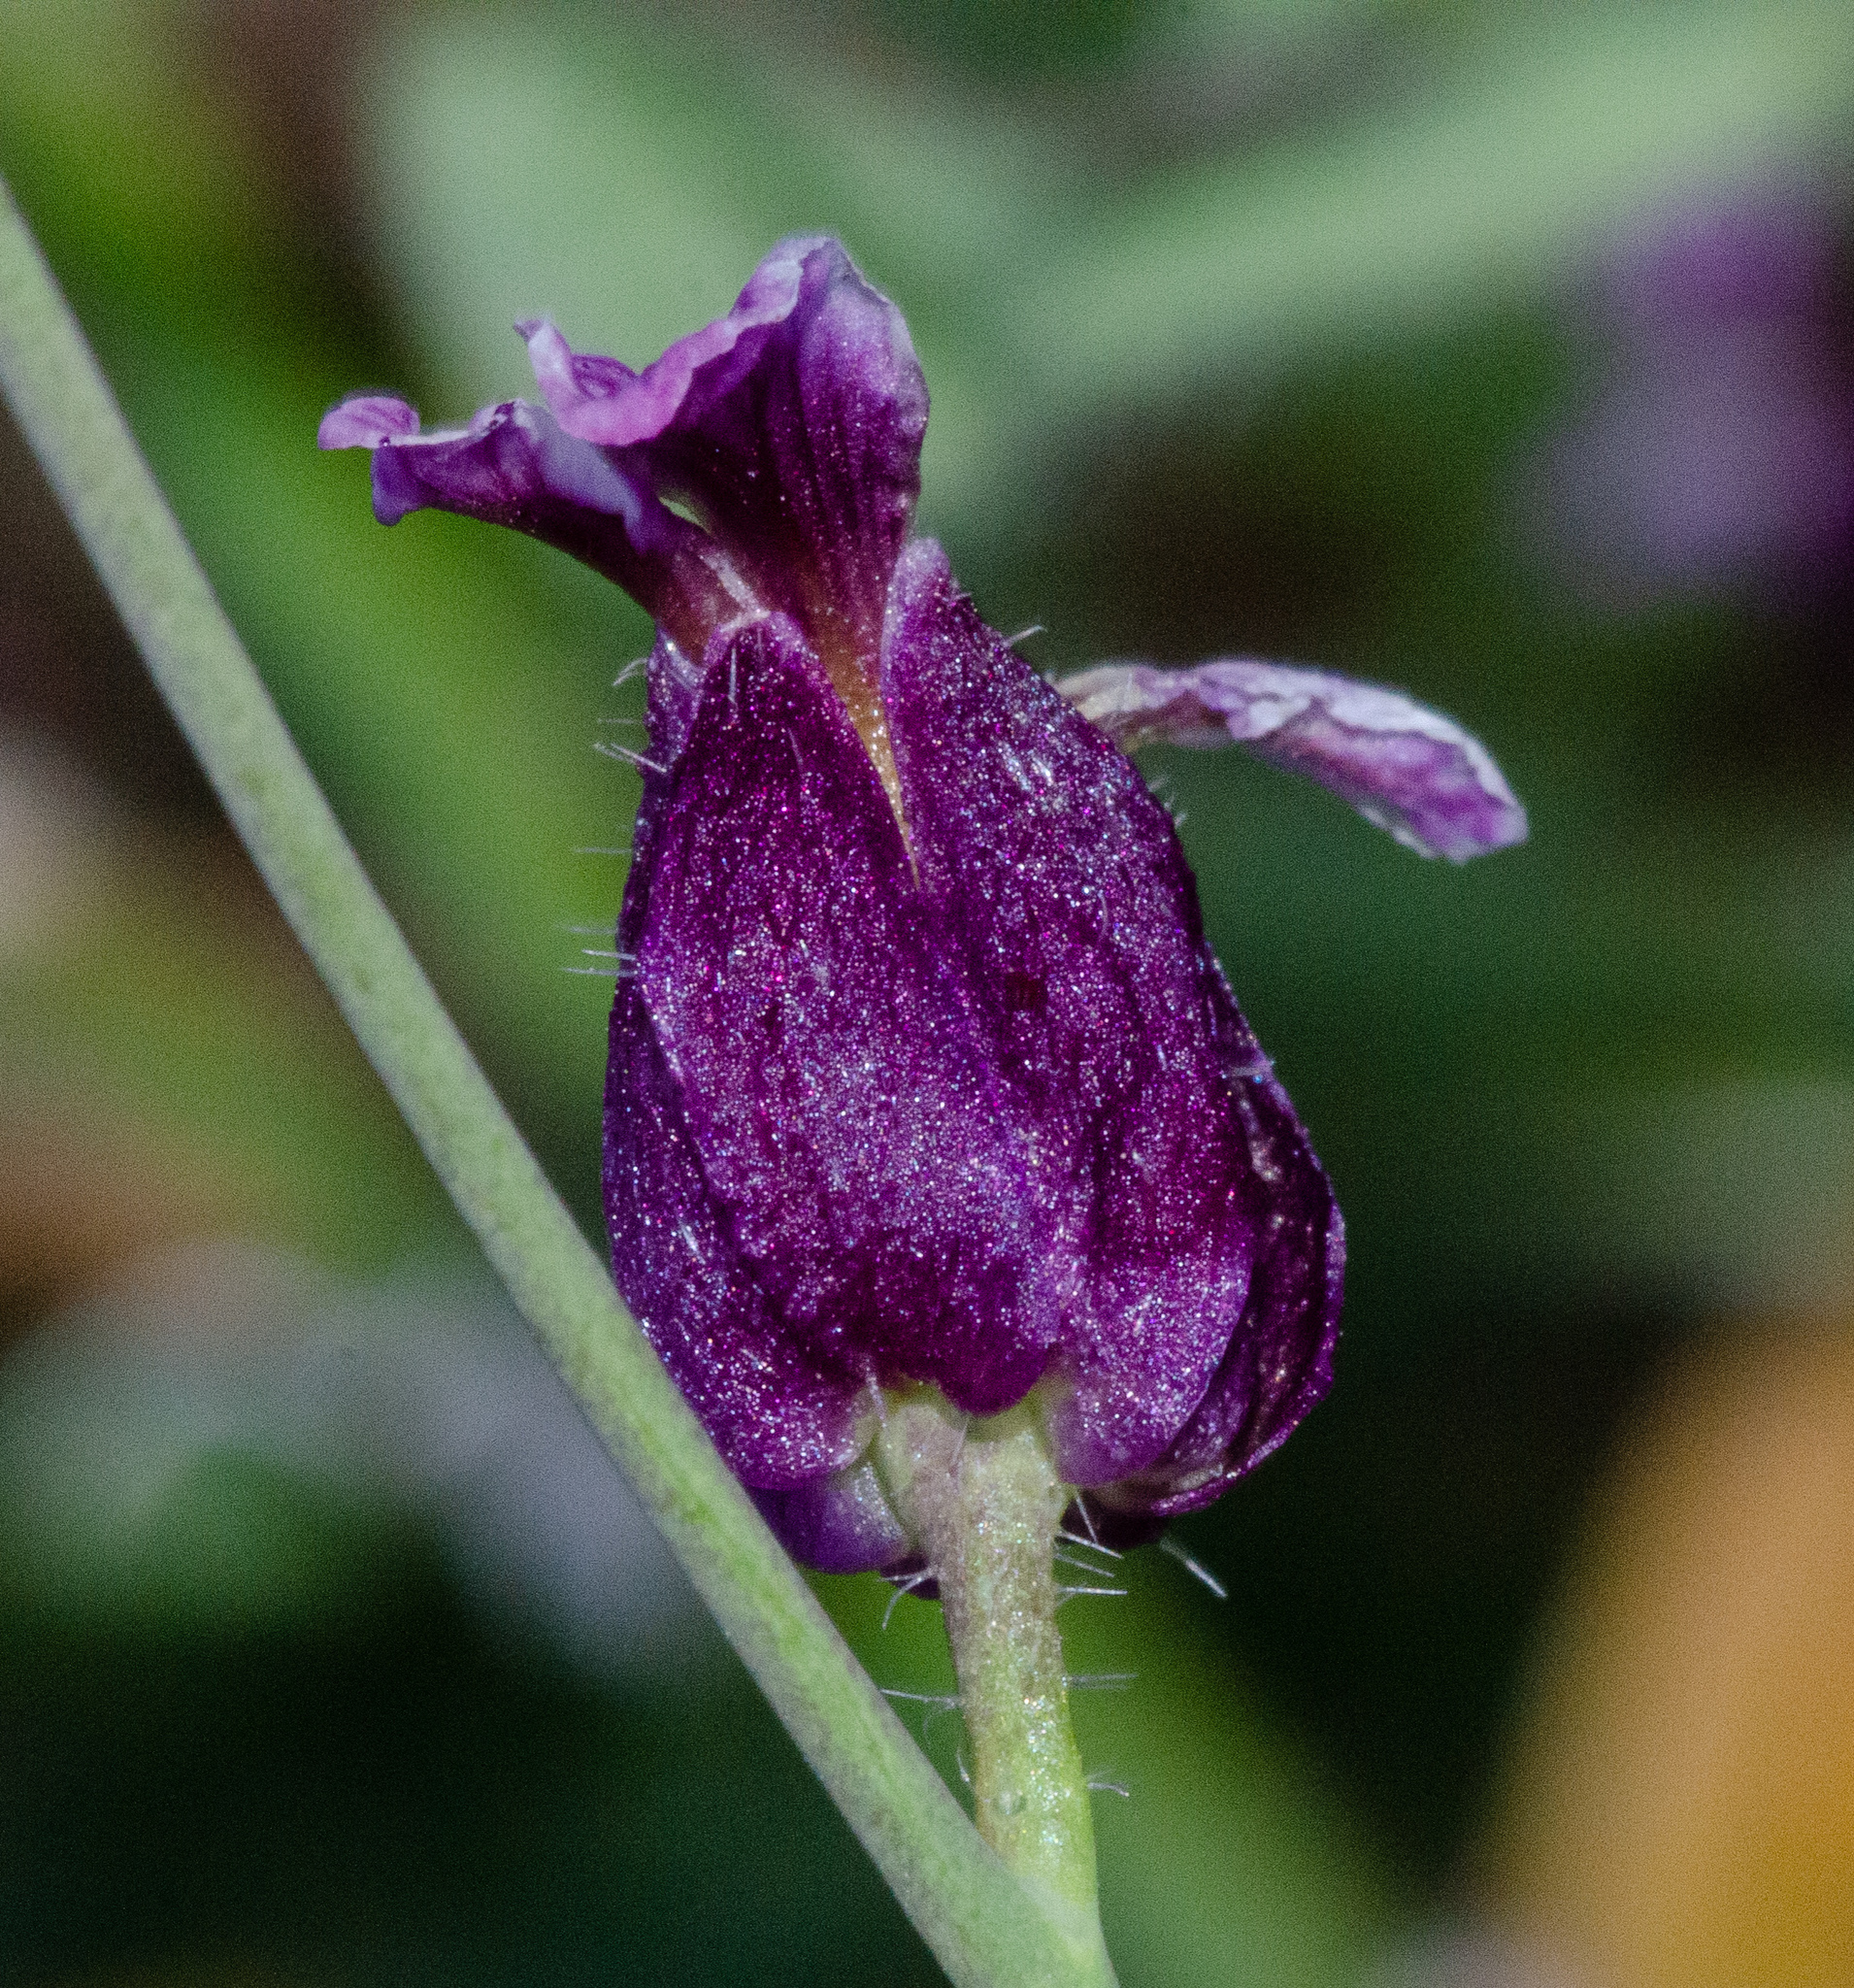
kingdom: Plantae
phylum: Tracheophyta
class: Magnoliopsida
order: Brassicales
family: Brassicaceae
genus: Streptanthus
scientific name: Streptanthus glandulosus
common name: Jewel-flower
